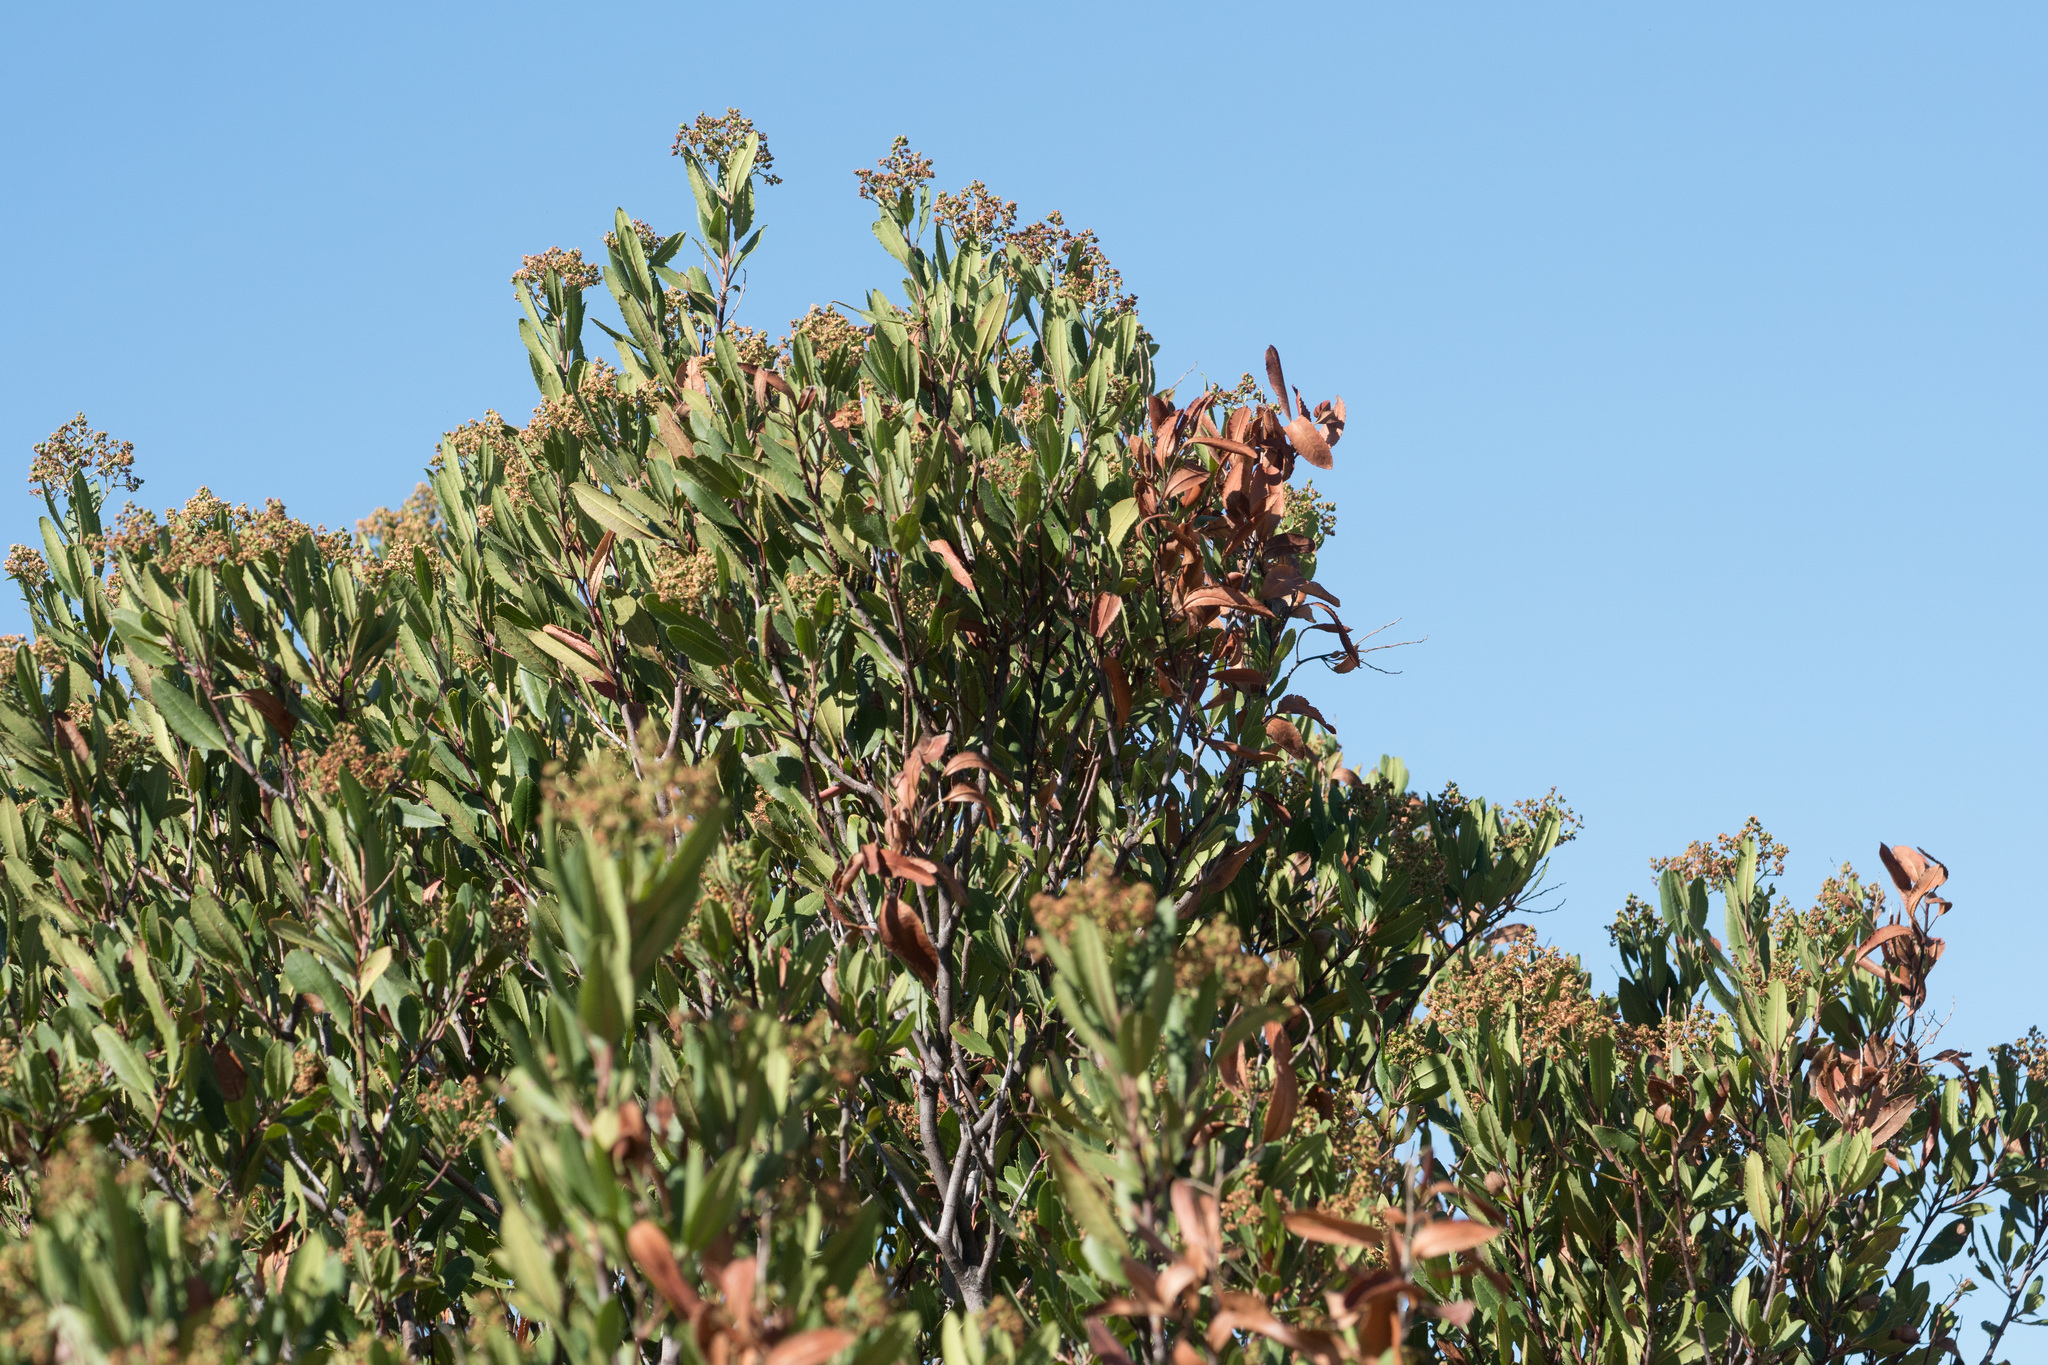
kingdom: Plantae
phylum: Tracheophyta
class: Magnoliopsida
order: Rosales
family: Rosaceae
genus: Heteromeles
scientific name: Heteromeles arbutifolia
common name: California-holly
